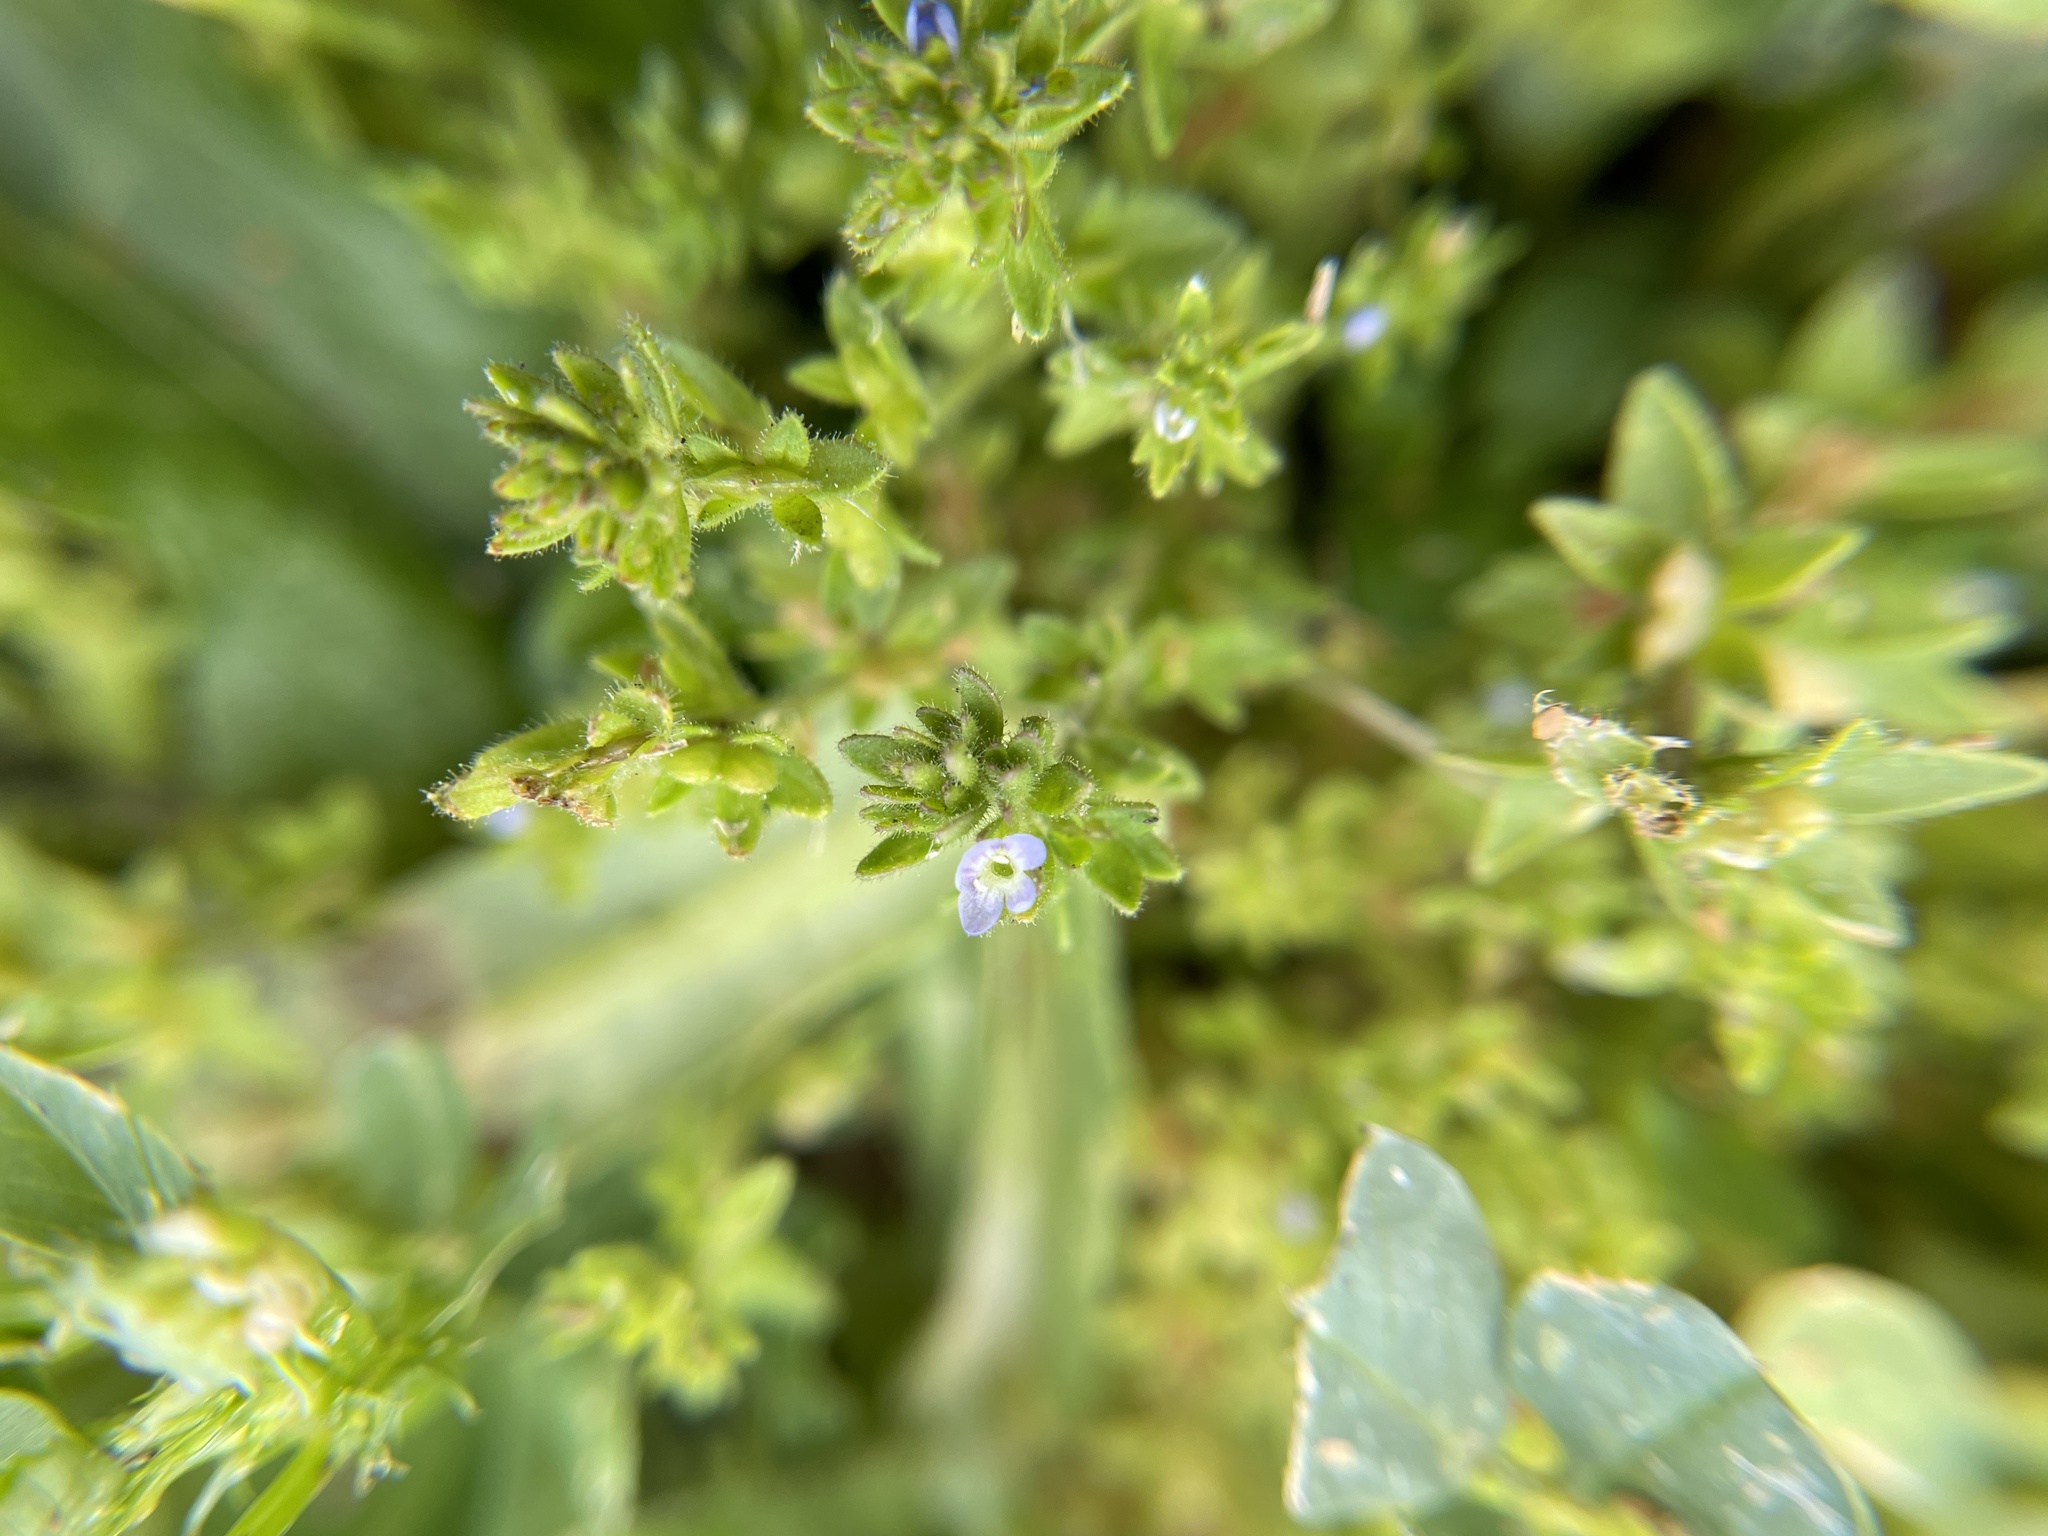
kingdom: Plantae
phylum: Tracheophyta
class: Magnoliopsida
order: Lamiales
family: Plantaginaceae
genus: Veronica
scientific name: Veronica arvensis
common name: Corn speedwell
